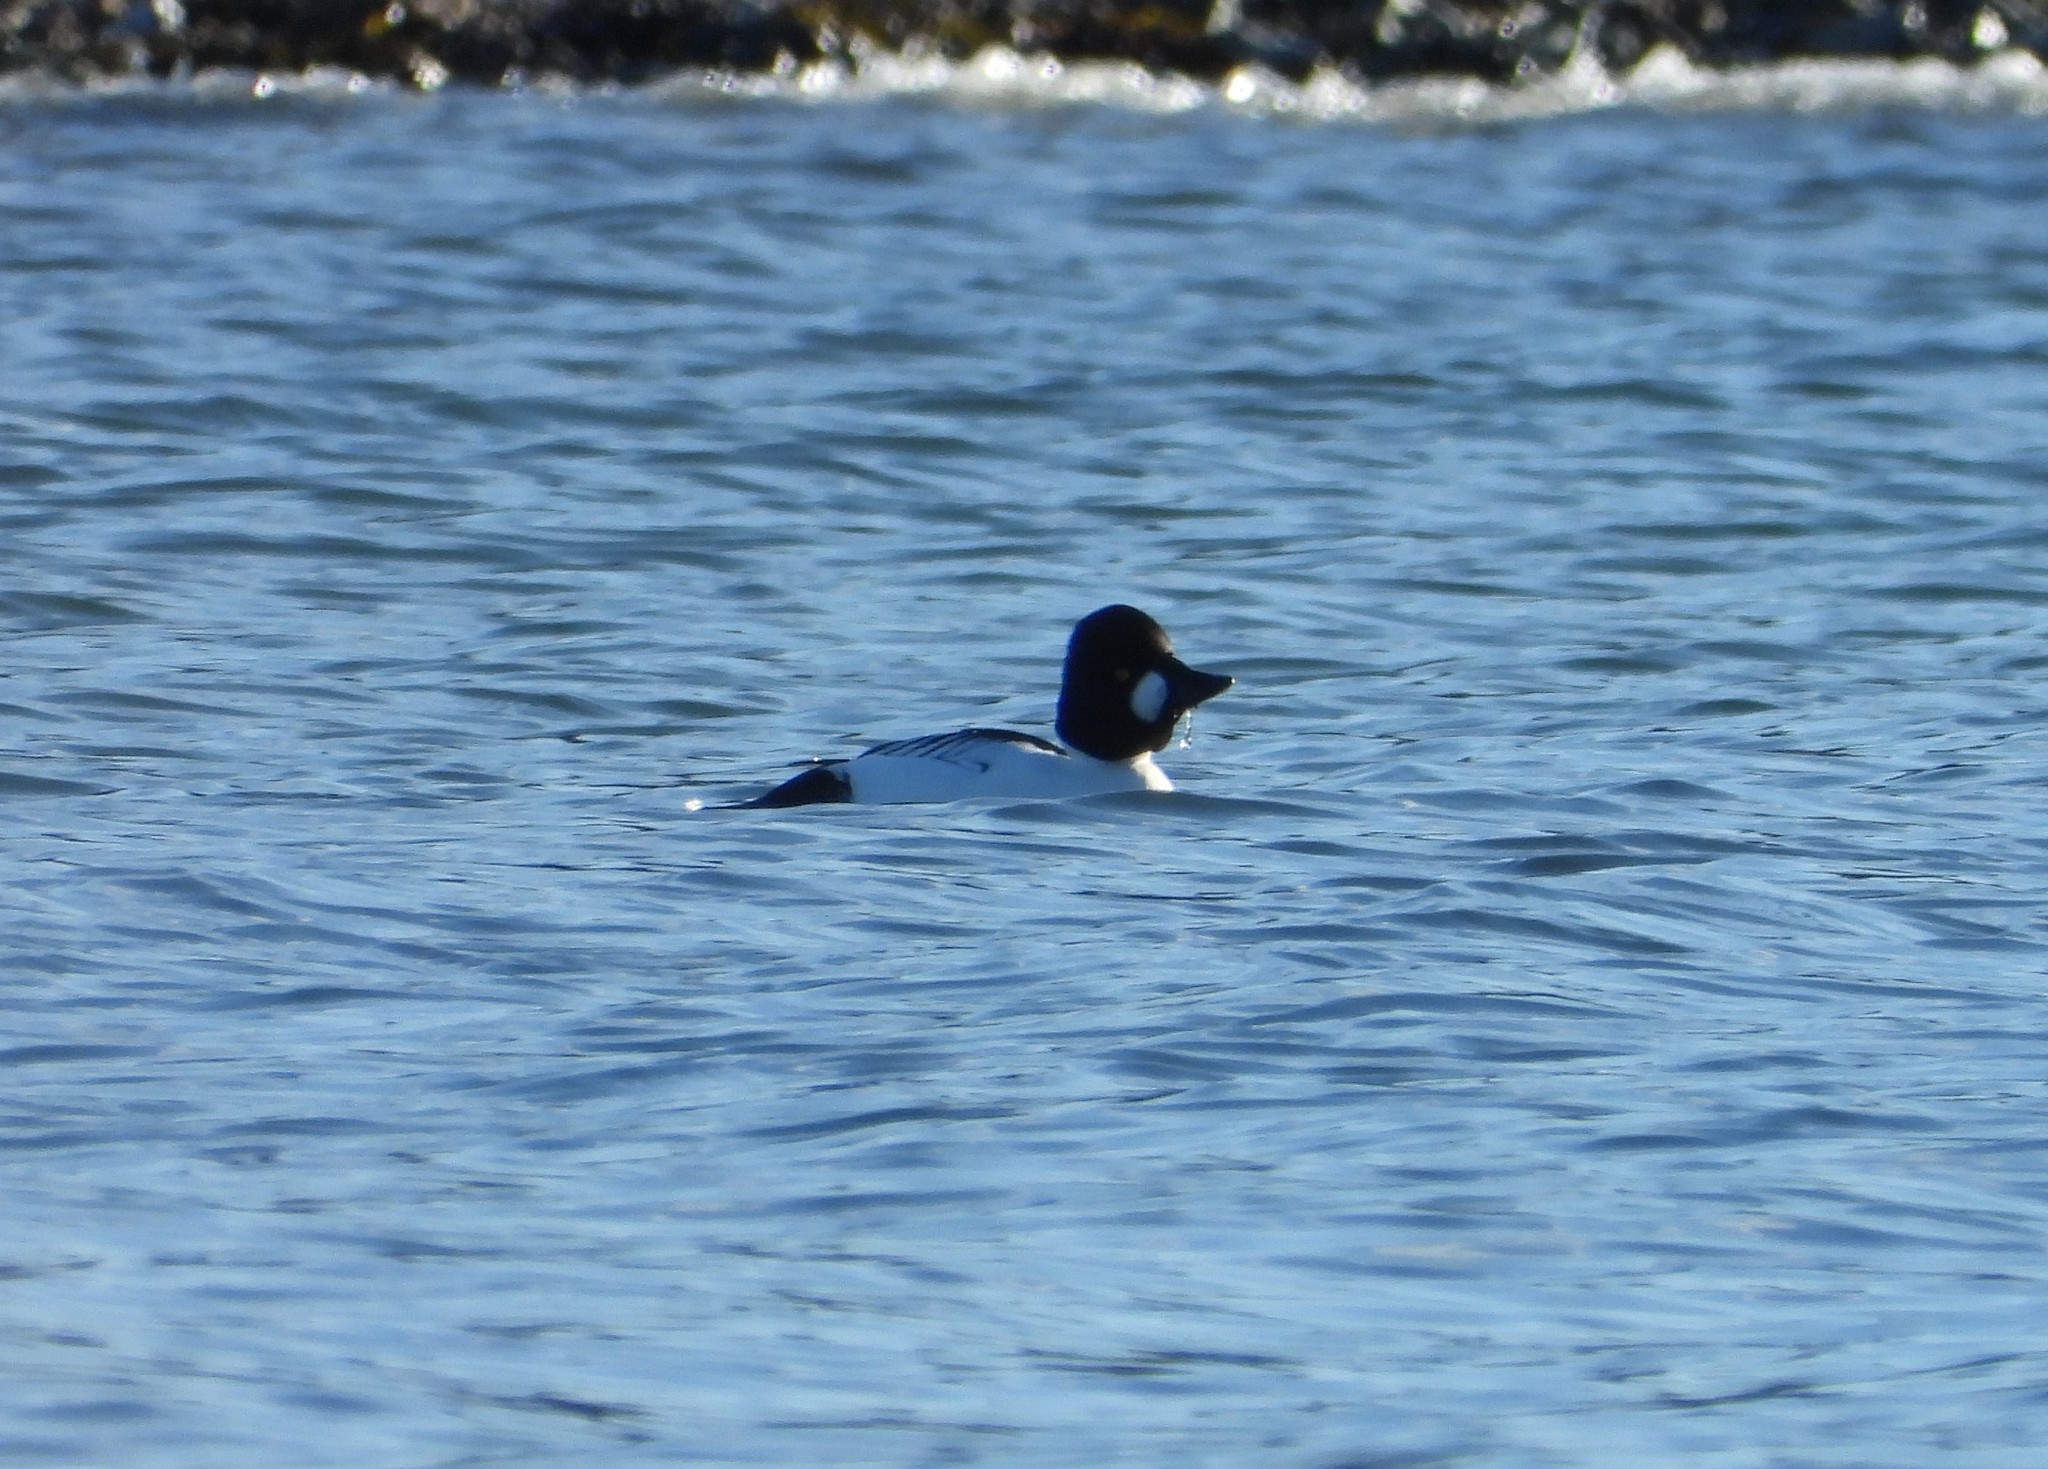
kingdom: Animalia
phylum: Chordata
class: Aves
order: Anseriformes
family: Anatidae
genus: Bucephala
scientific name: Bucephala clangula
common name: Common goldeneye
